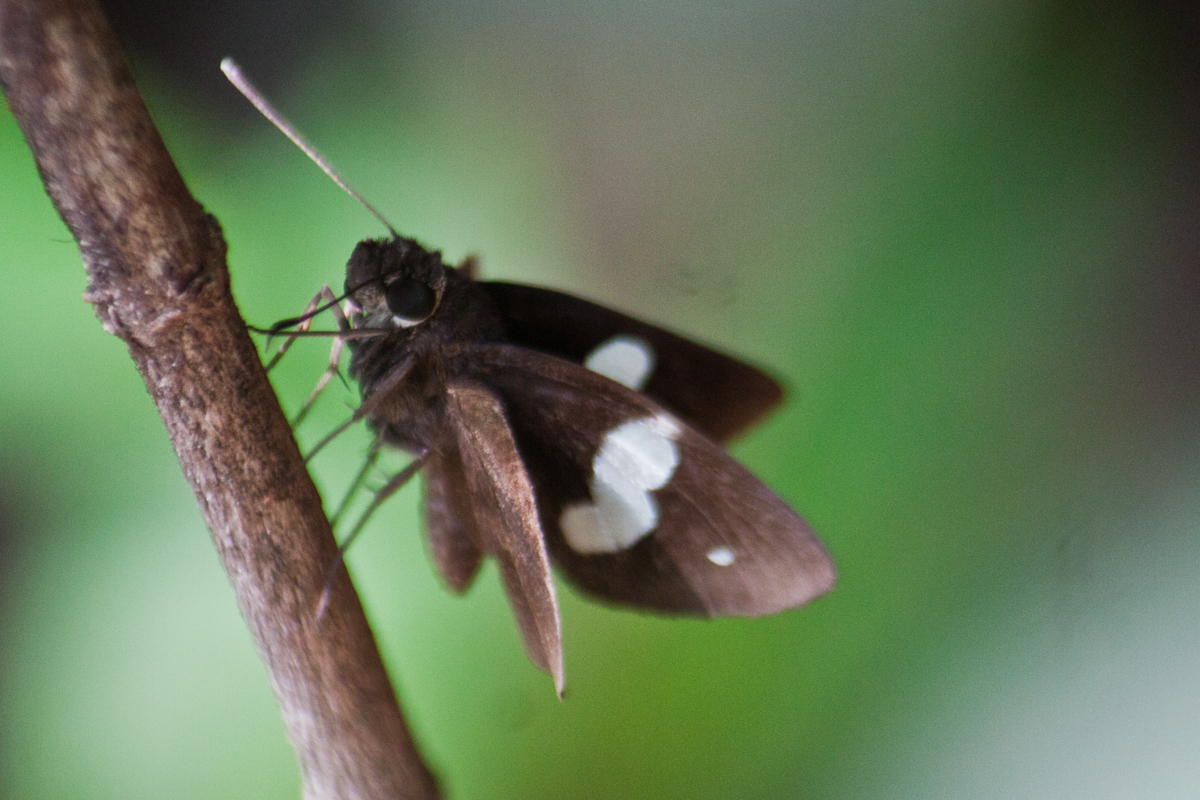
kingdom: Animalia
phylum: Arthropoda
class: Insecta
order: Lepidoptera
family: Hesperiidae
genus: Notocrypta
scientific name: Notocrypta paralysos
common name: Common banded demon
